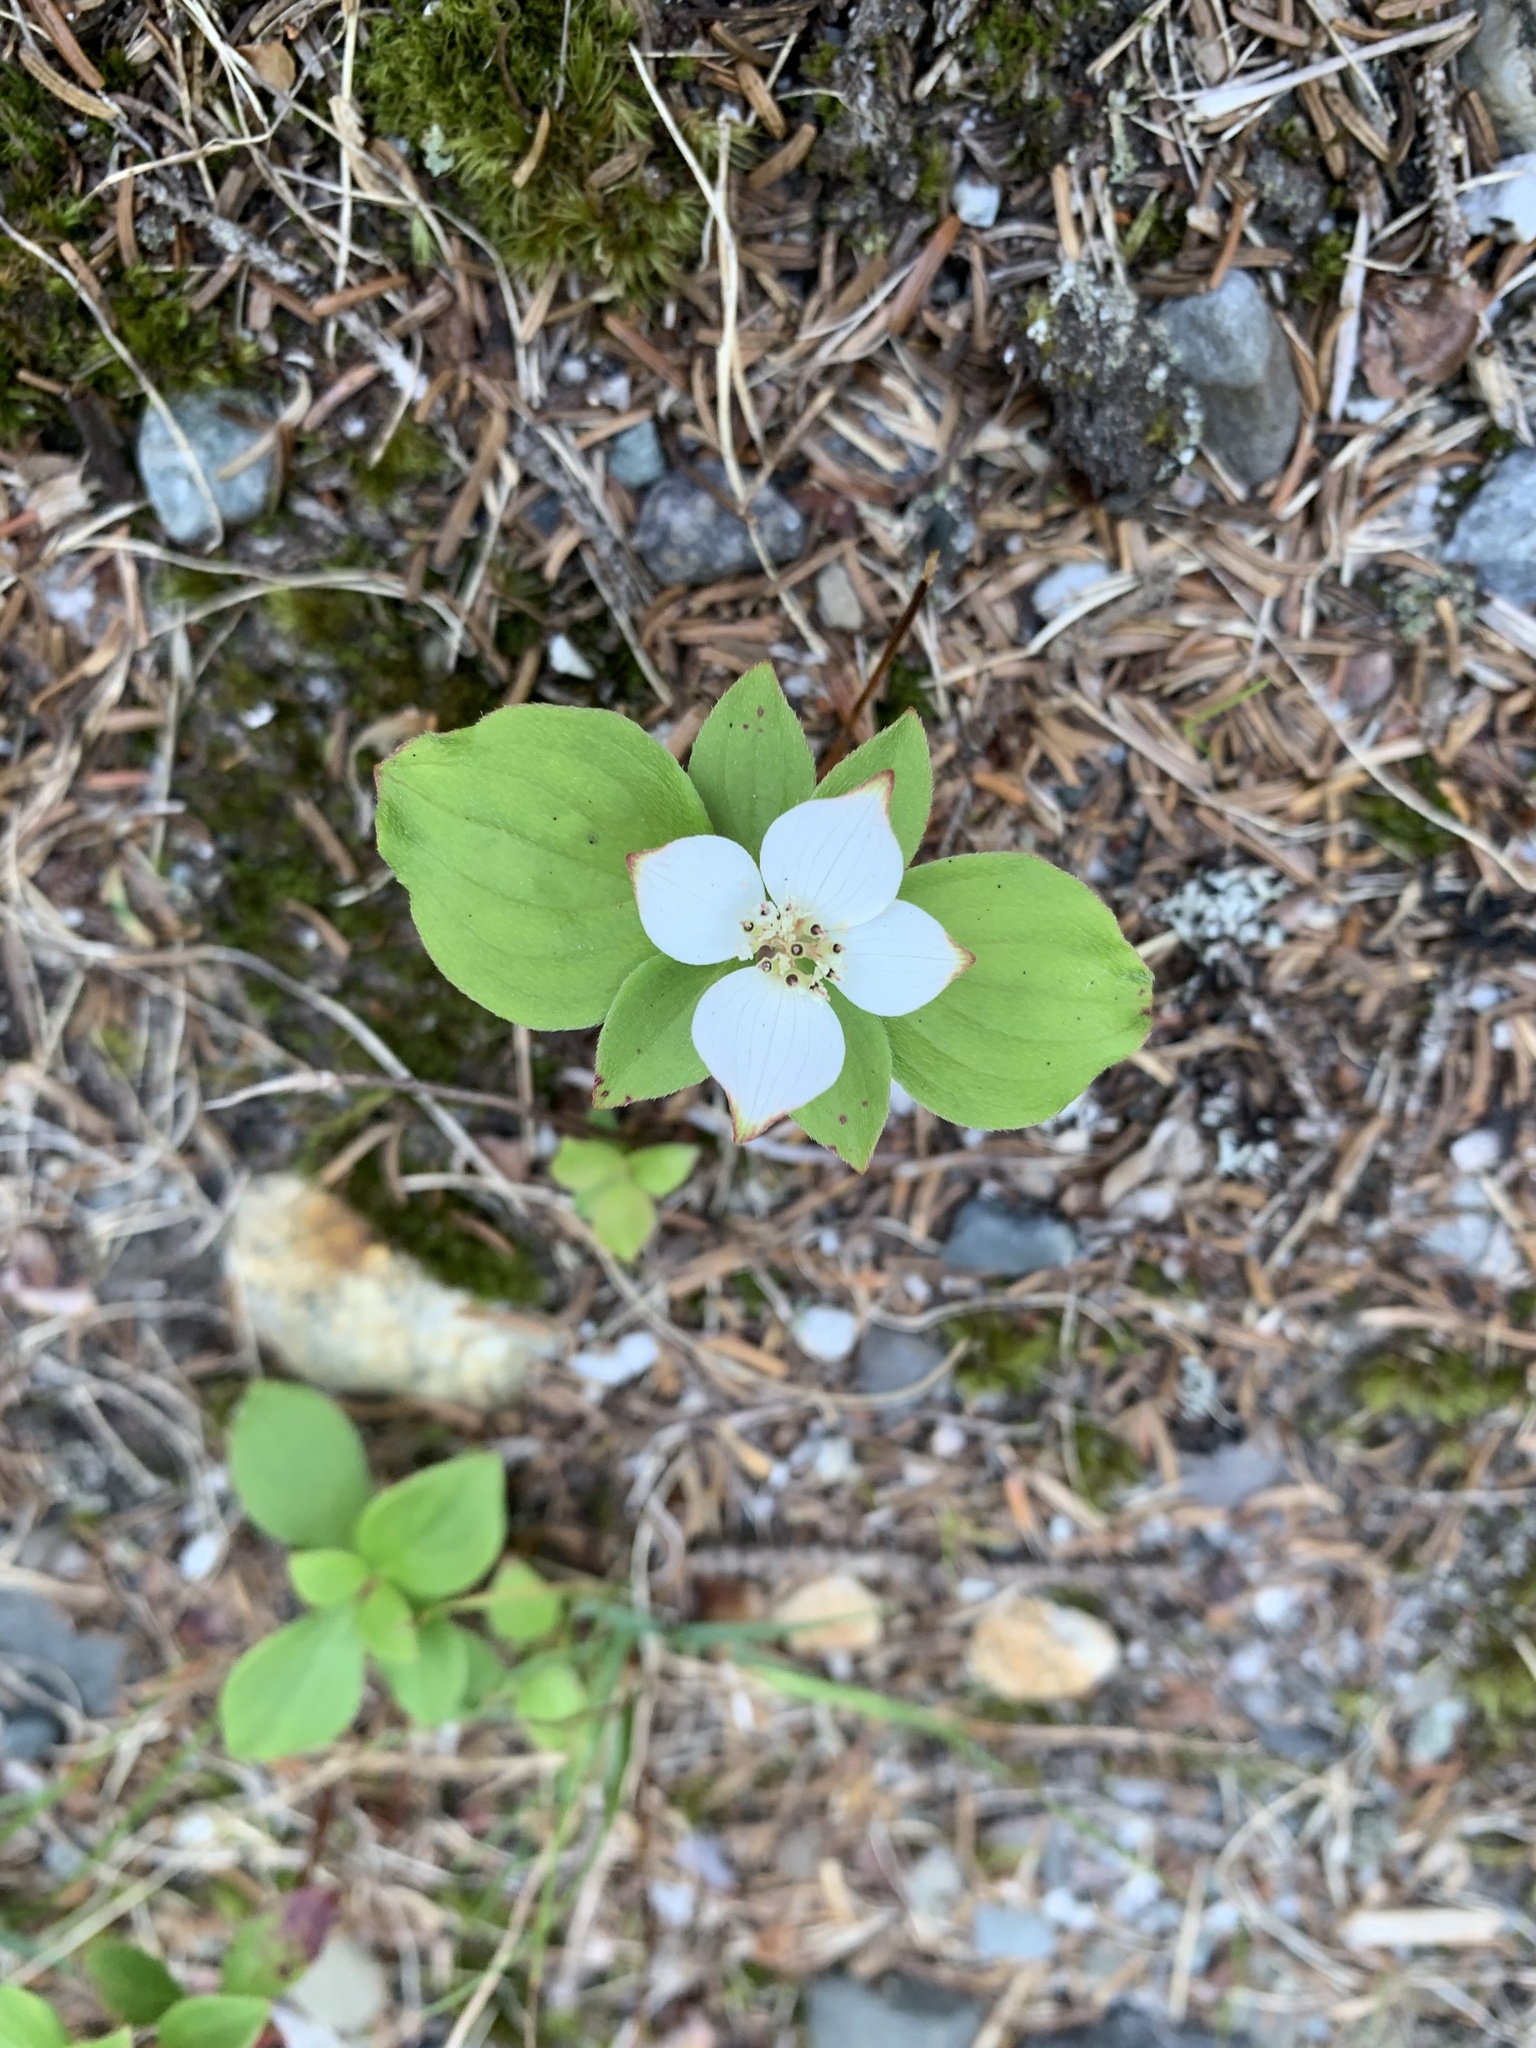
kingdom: Plantae
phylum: Tracheophyta
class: Magnoliopsida
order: Cornales
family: Cornaceae
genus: Cornus
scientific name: Cornus canadensis
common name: Creeping dogwood
